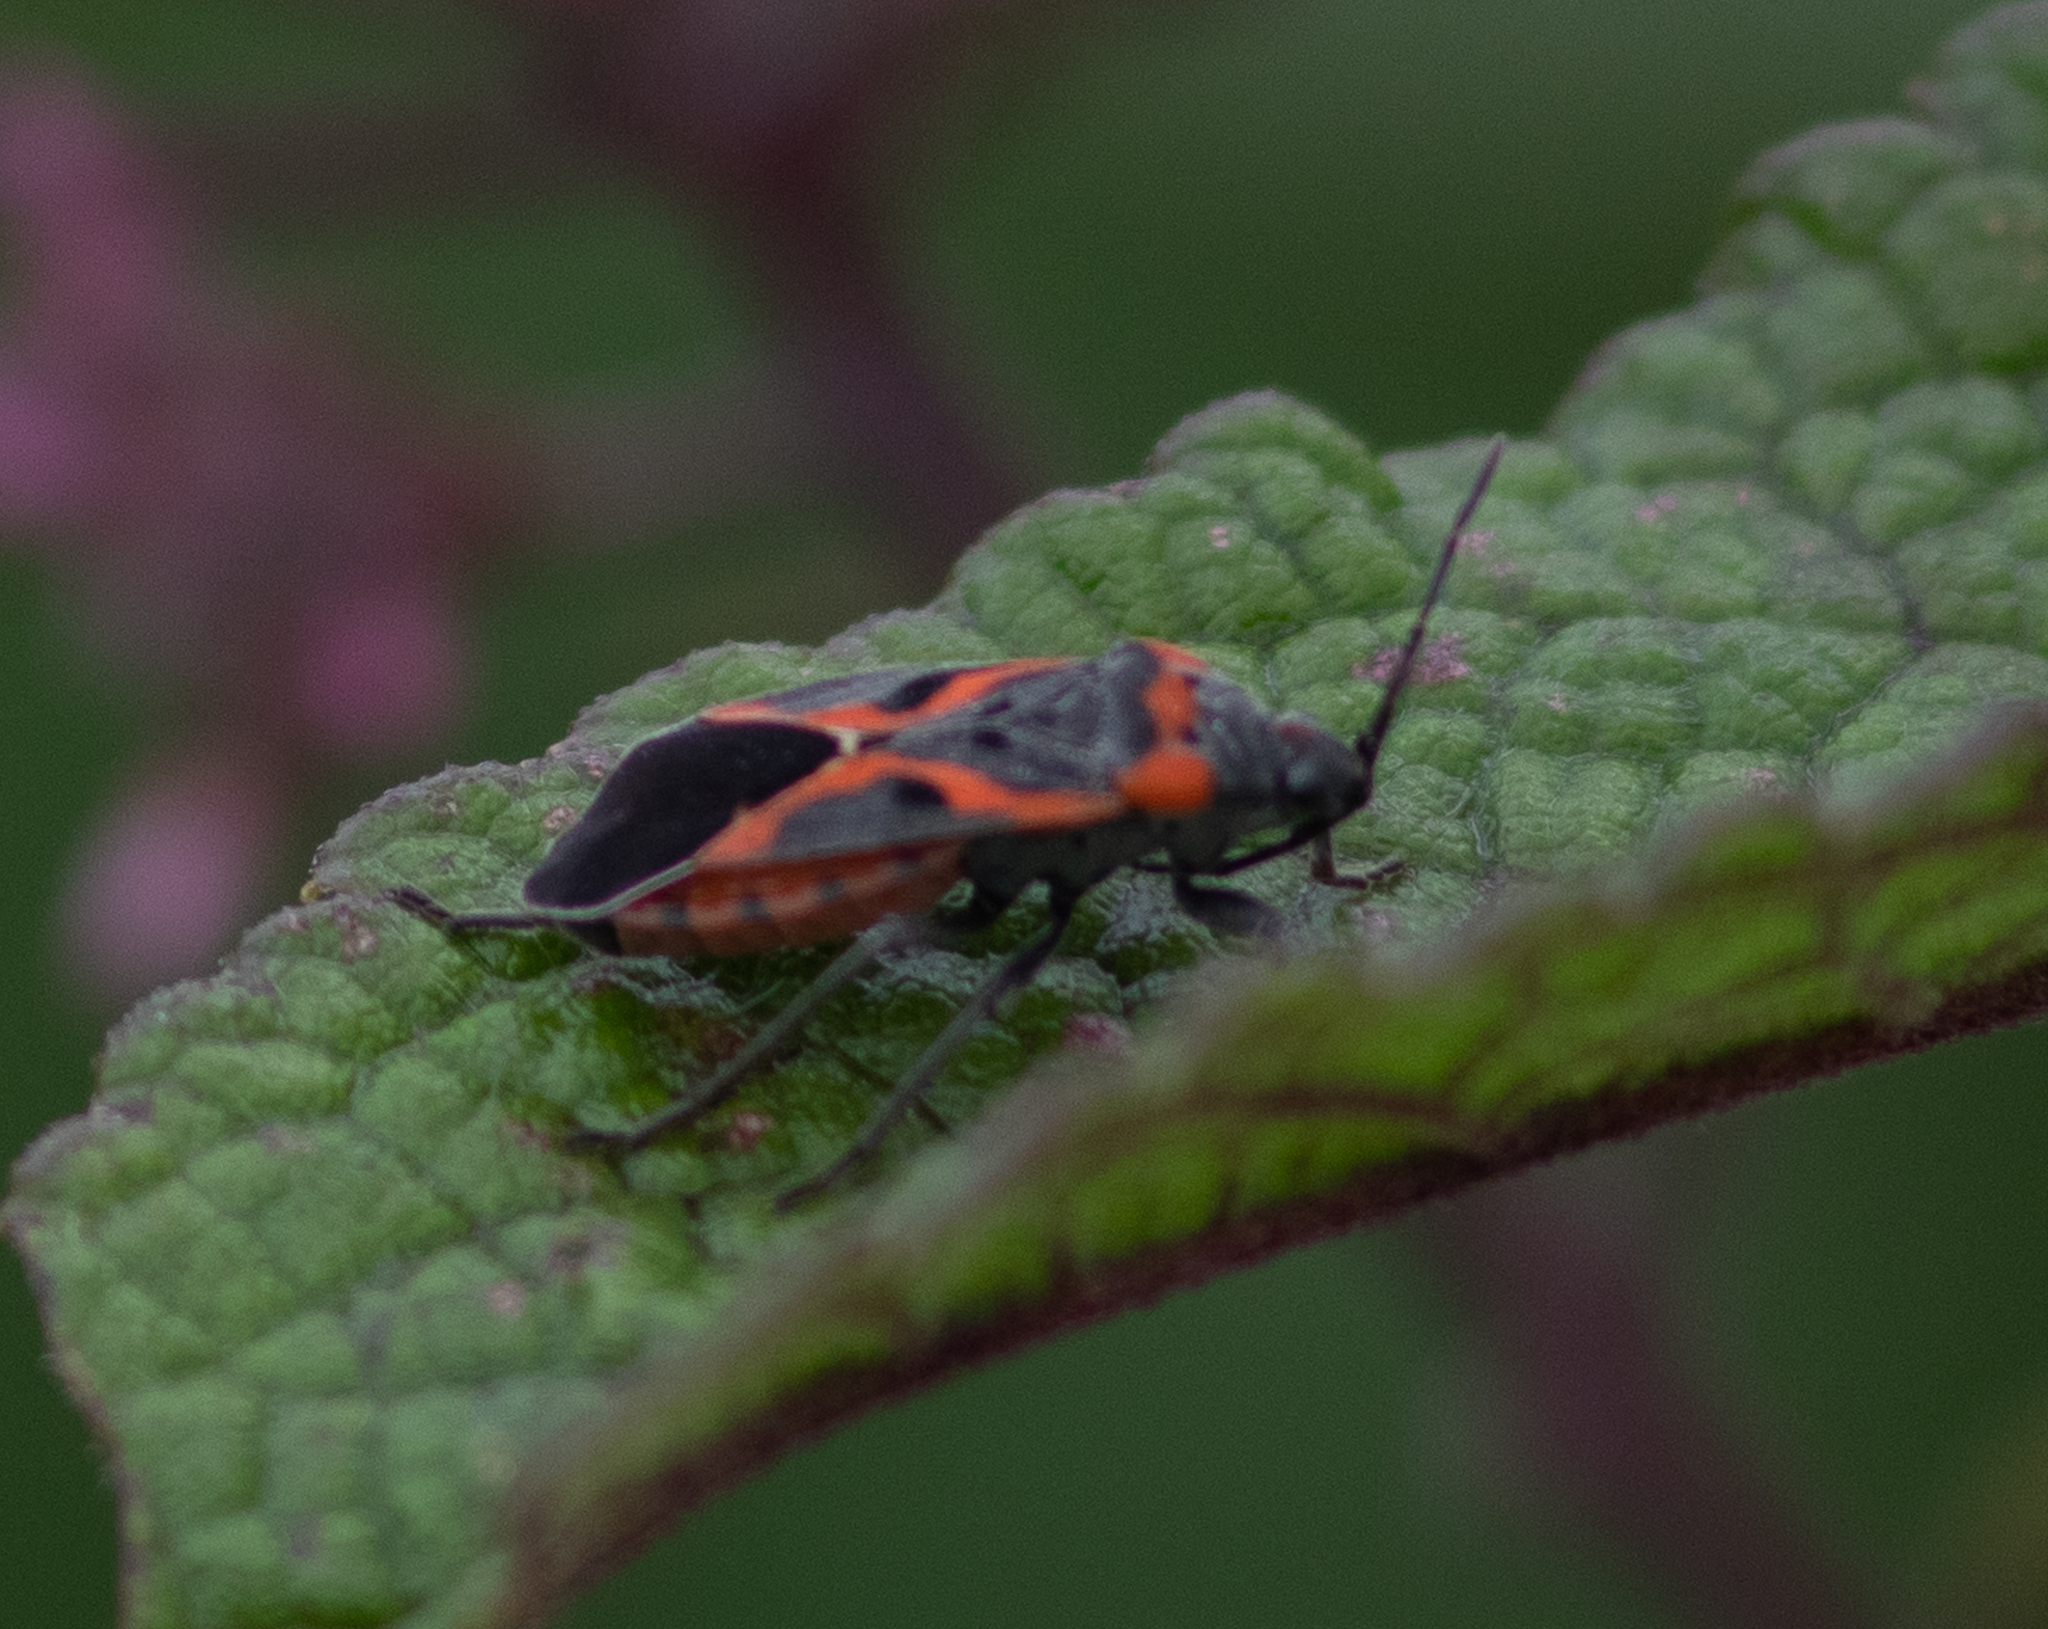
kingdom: Animalia
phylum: Arthropoda
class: Insecta
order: Hemiptera
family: Lygaeidae
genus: Lygaeus
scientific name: Lygaeus kalmii
